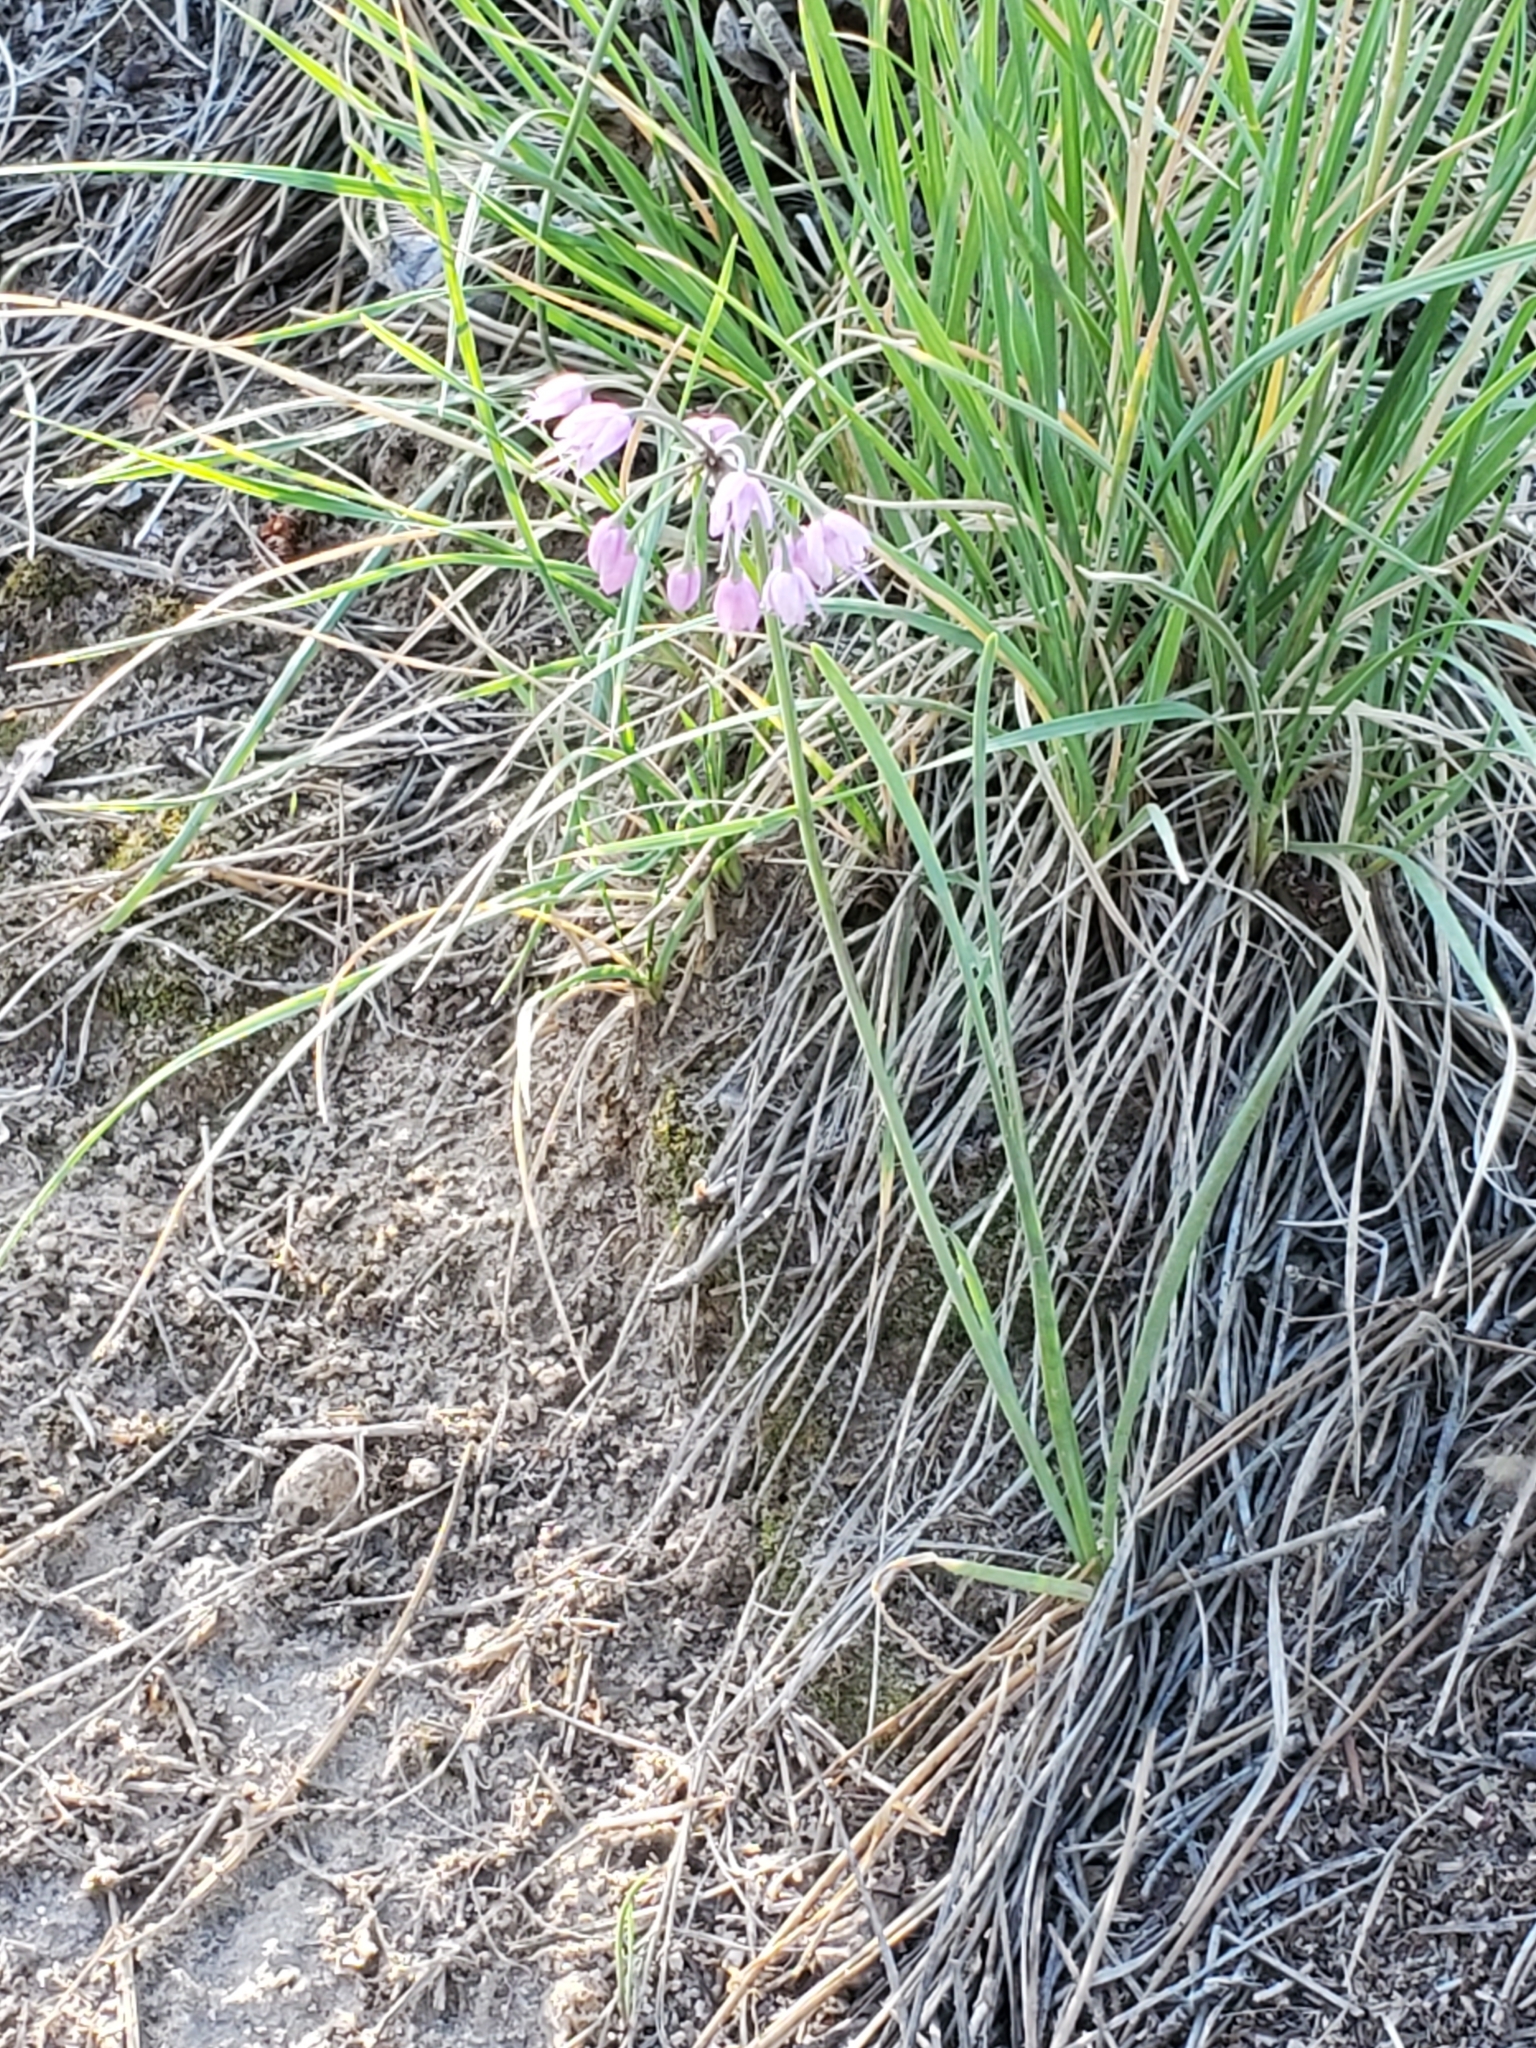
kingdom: Plantae
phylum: Tracheophyta
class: Liliopsida
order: Asparagales
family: Amaryllidaceae
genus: Allium
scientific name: Allium cernuum
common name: Nodding onion
